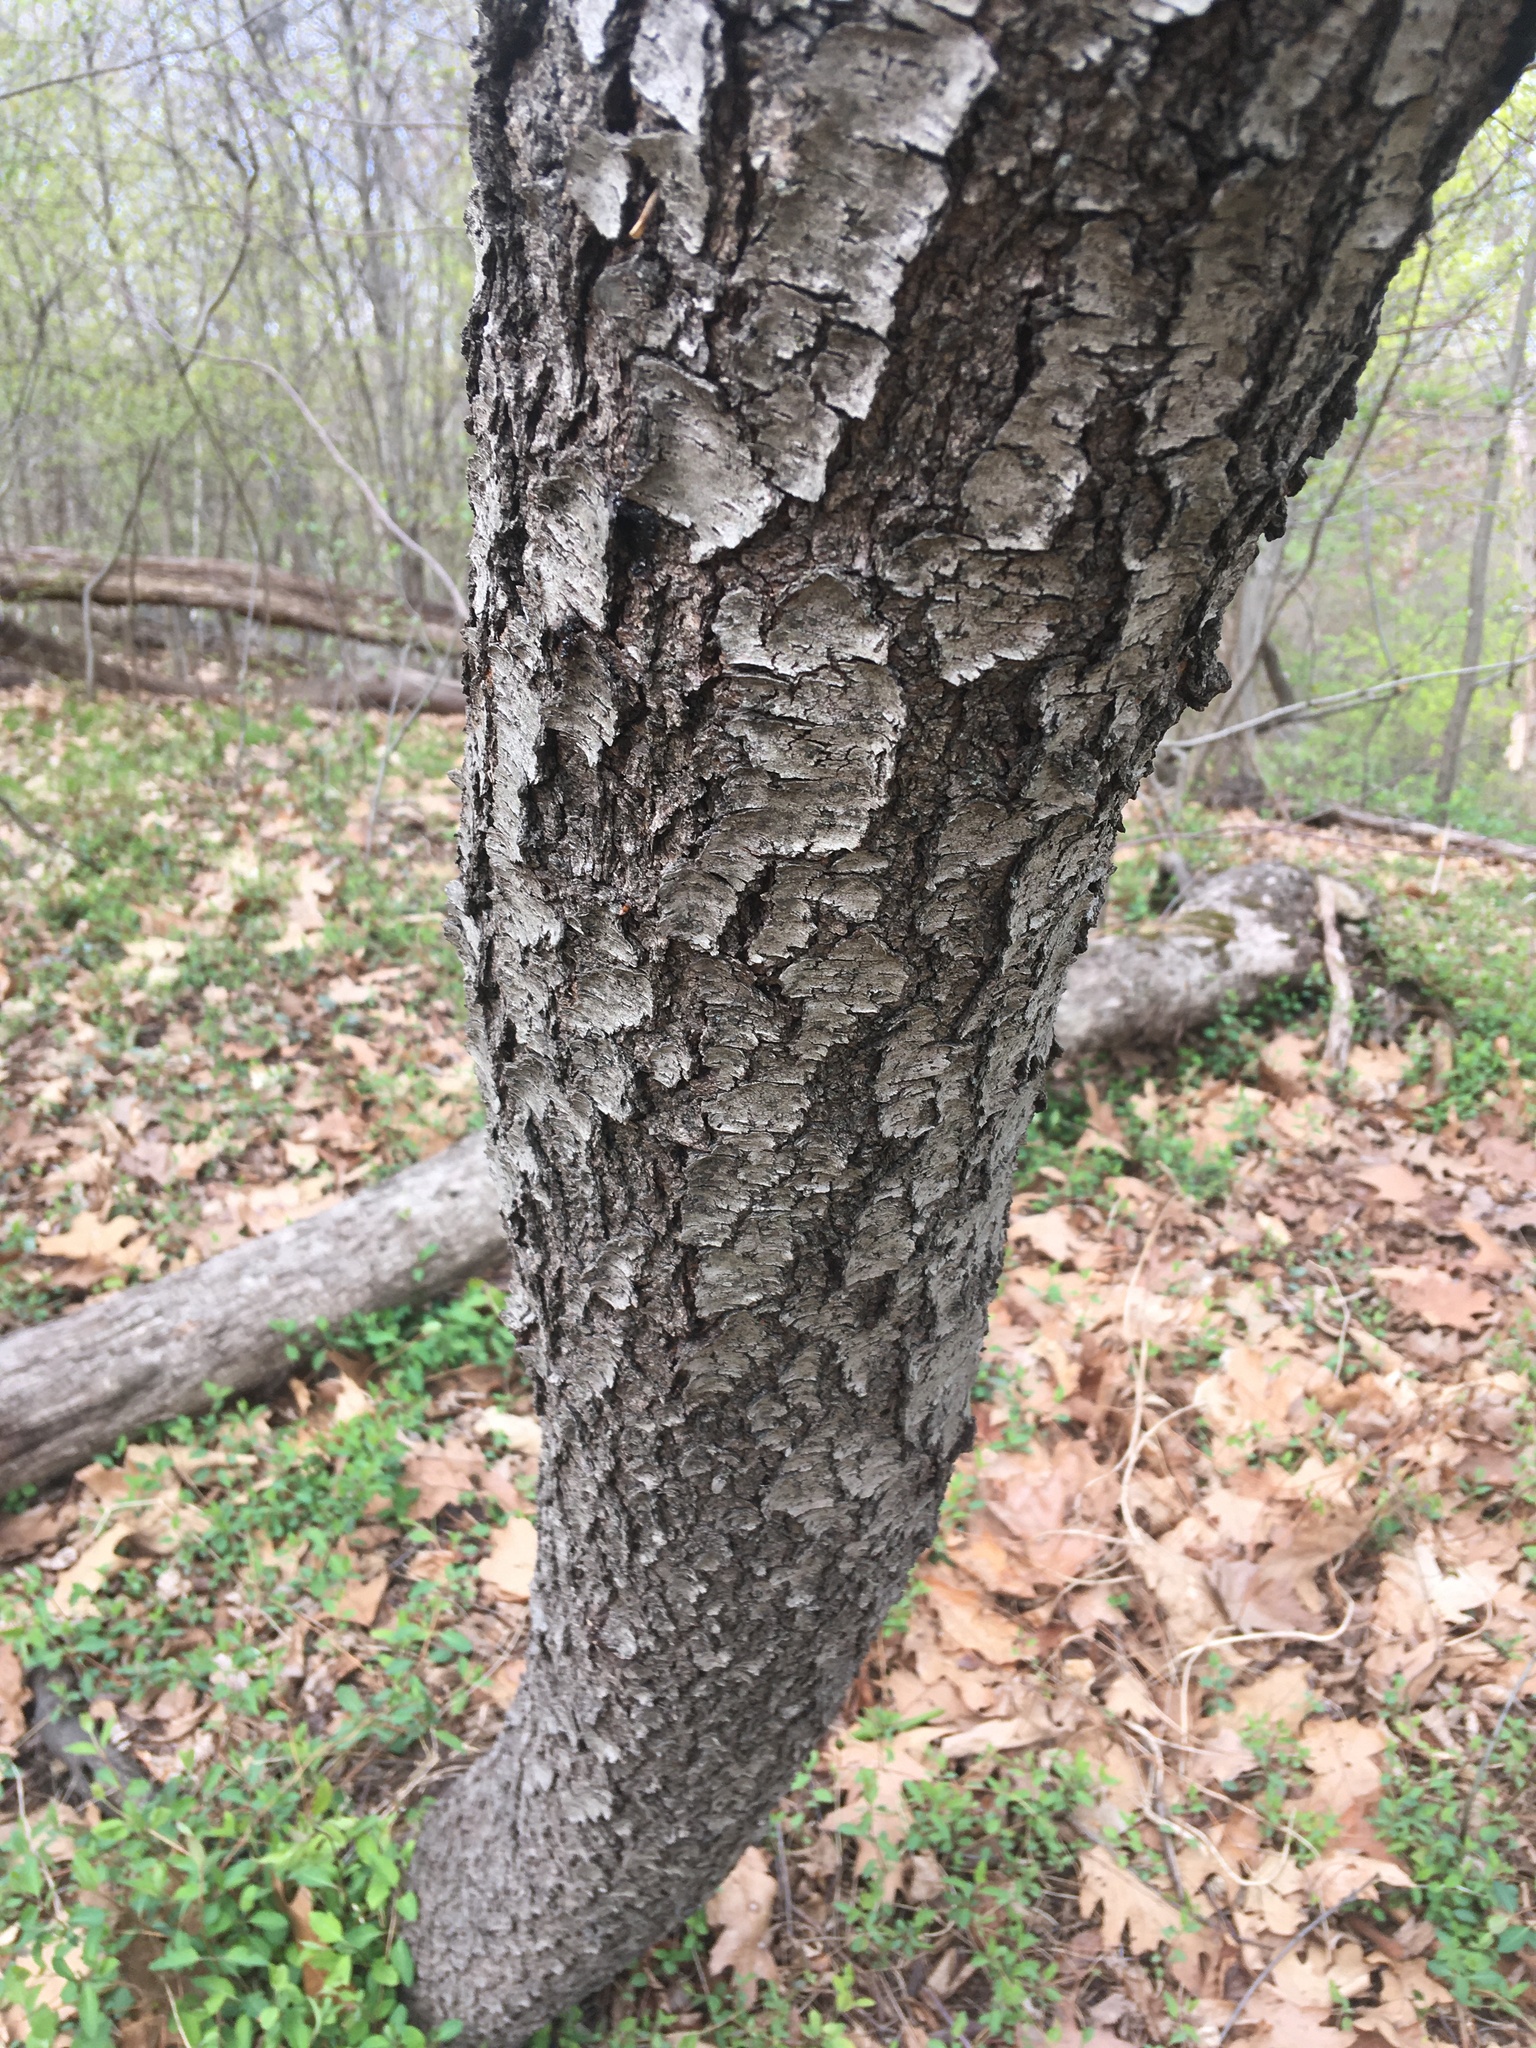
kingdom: Plantae
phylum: Tracheophyta
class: Magnoliopsida
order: Rosales
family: Rosaceae
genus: Prunus
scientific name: Prunus serotina
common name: Black cherry
